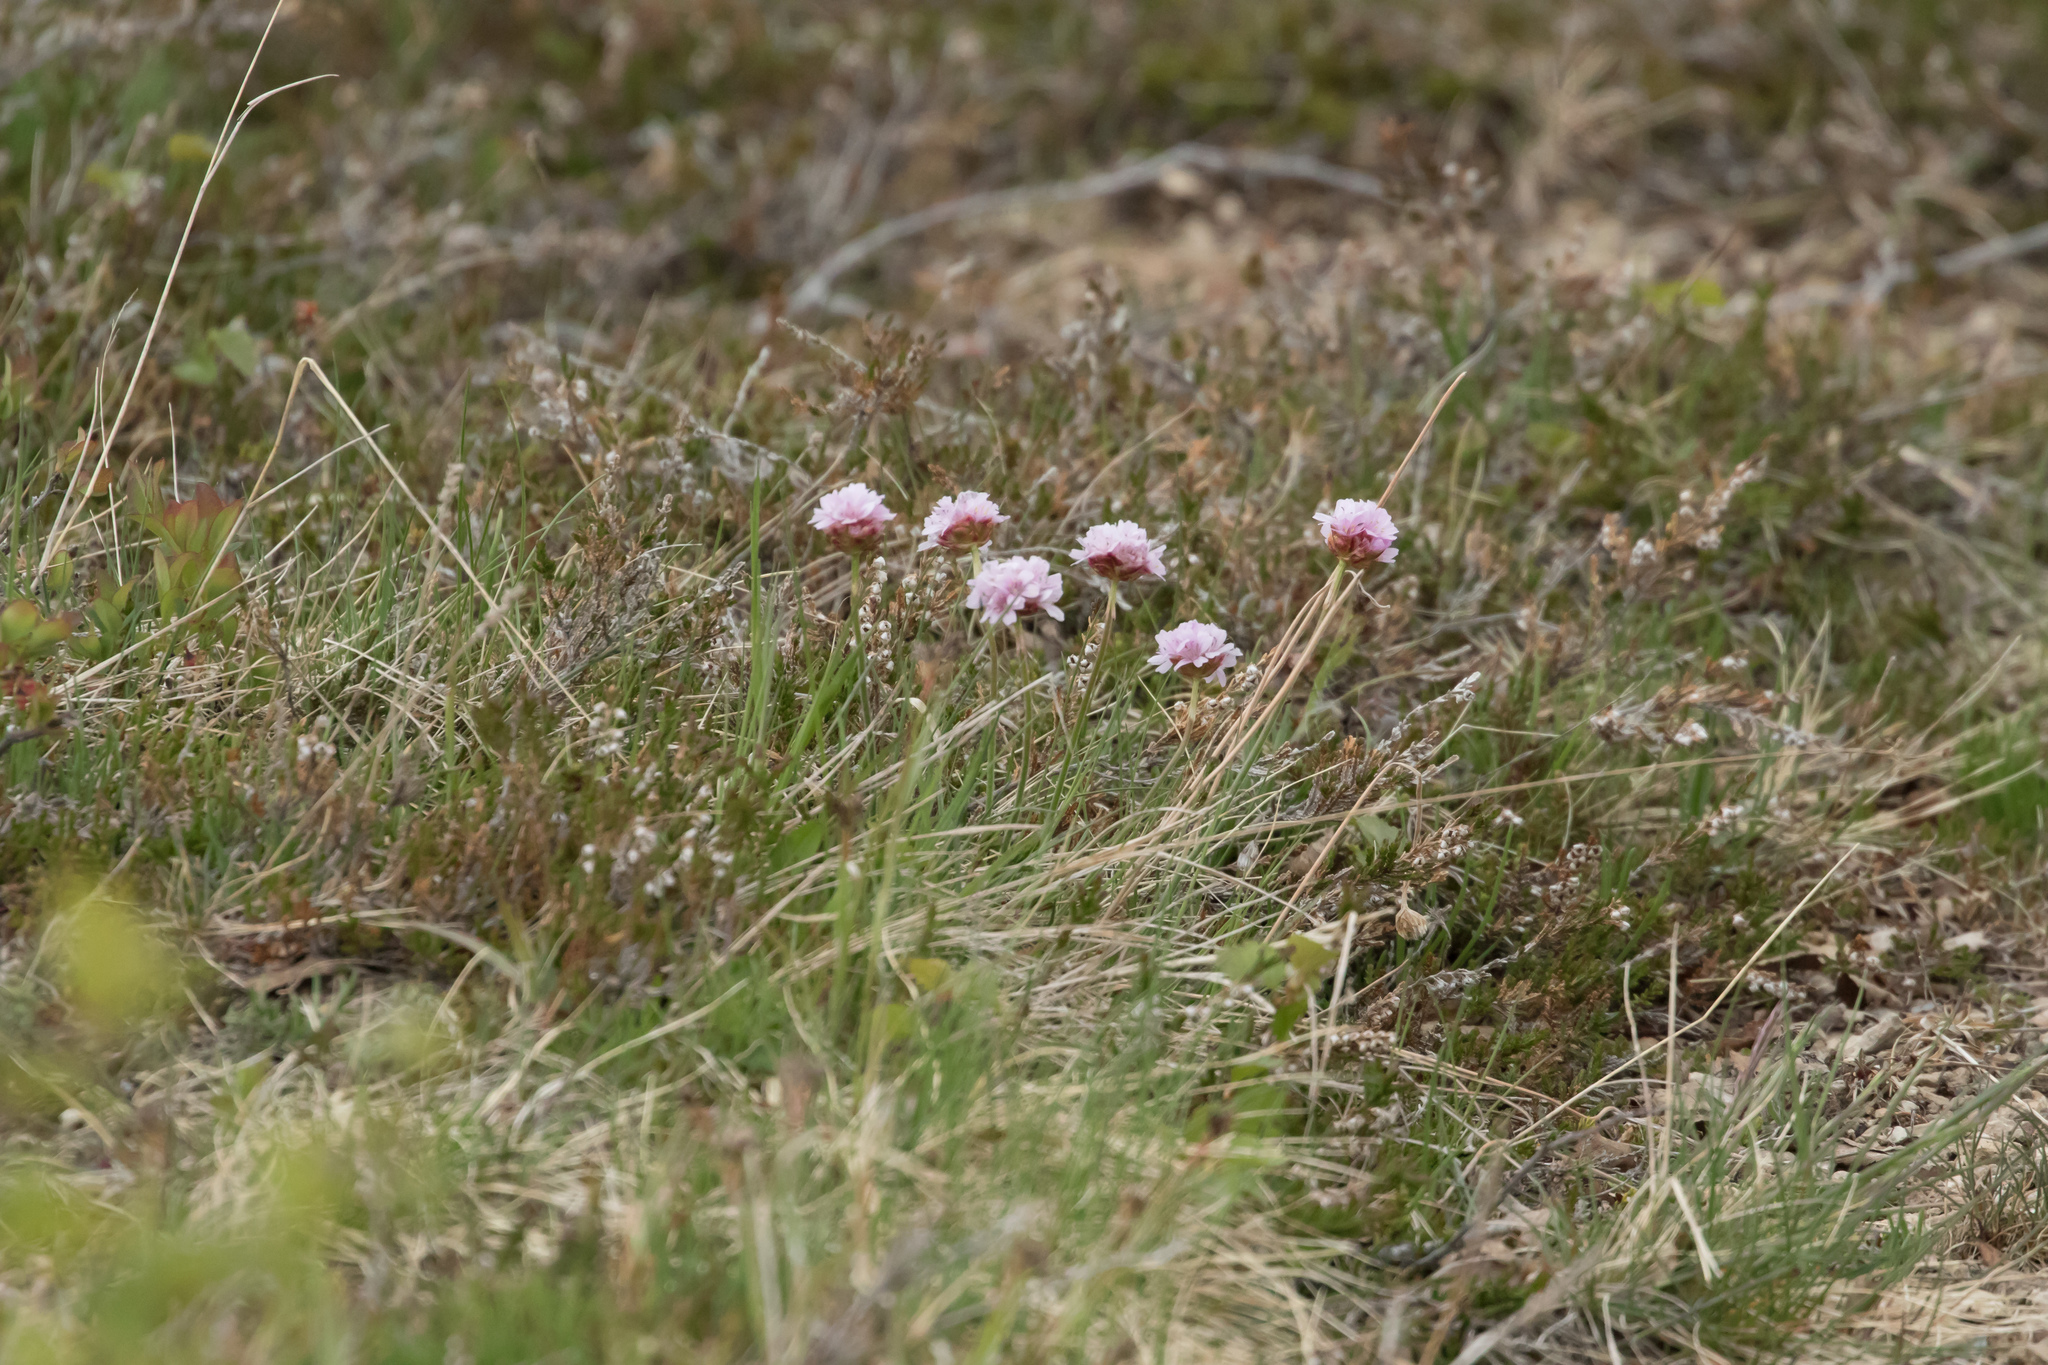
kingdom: Plantae
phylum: Tracheophyta
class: Magnoliopsida
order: Caryophyllales
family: Plumbaginaceae
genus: Armeria
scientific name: Armeria maritima
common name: Thrift
